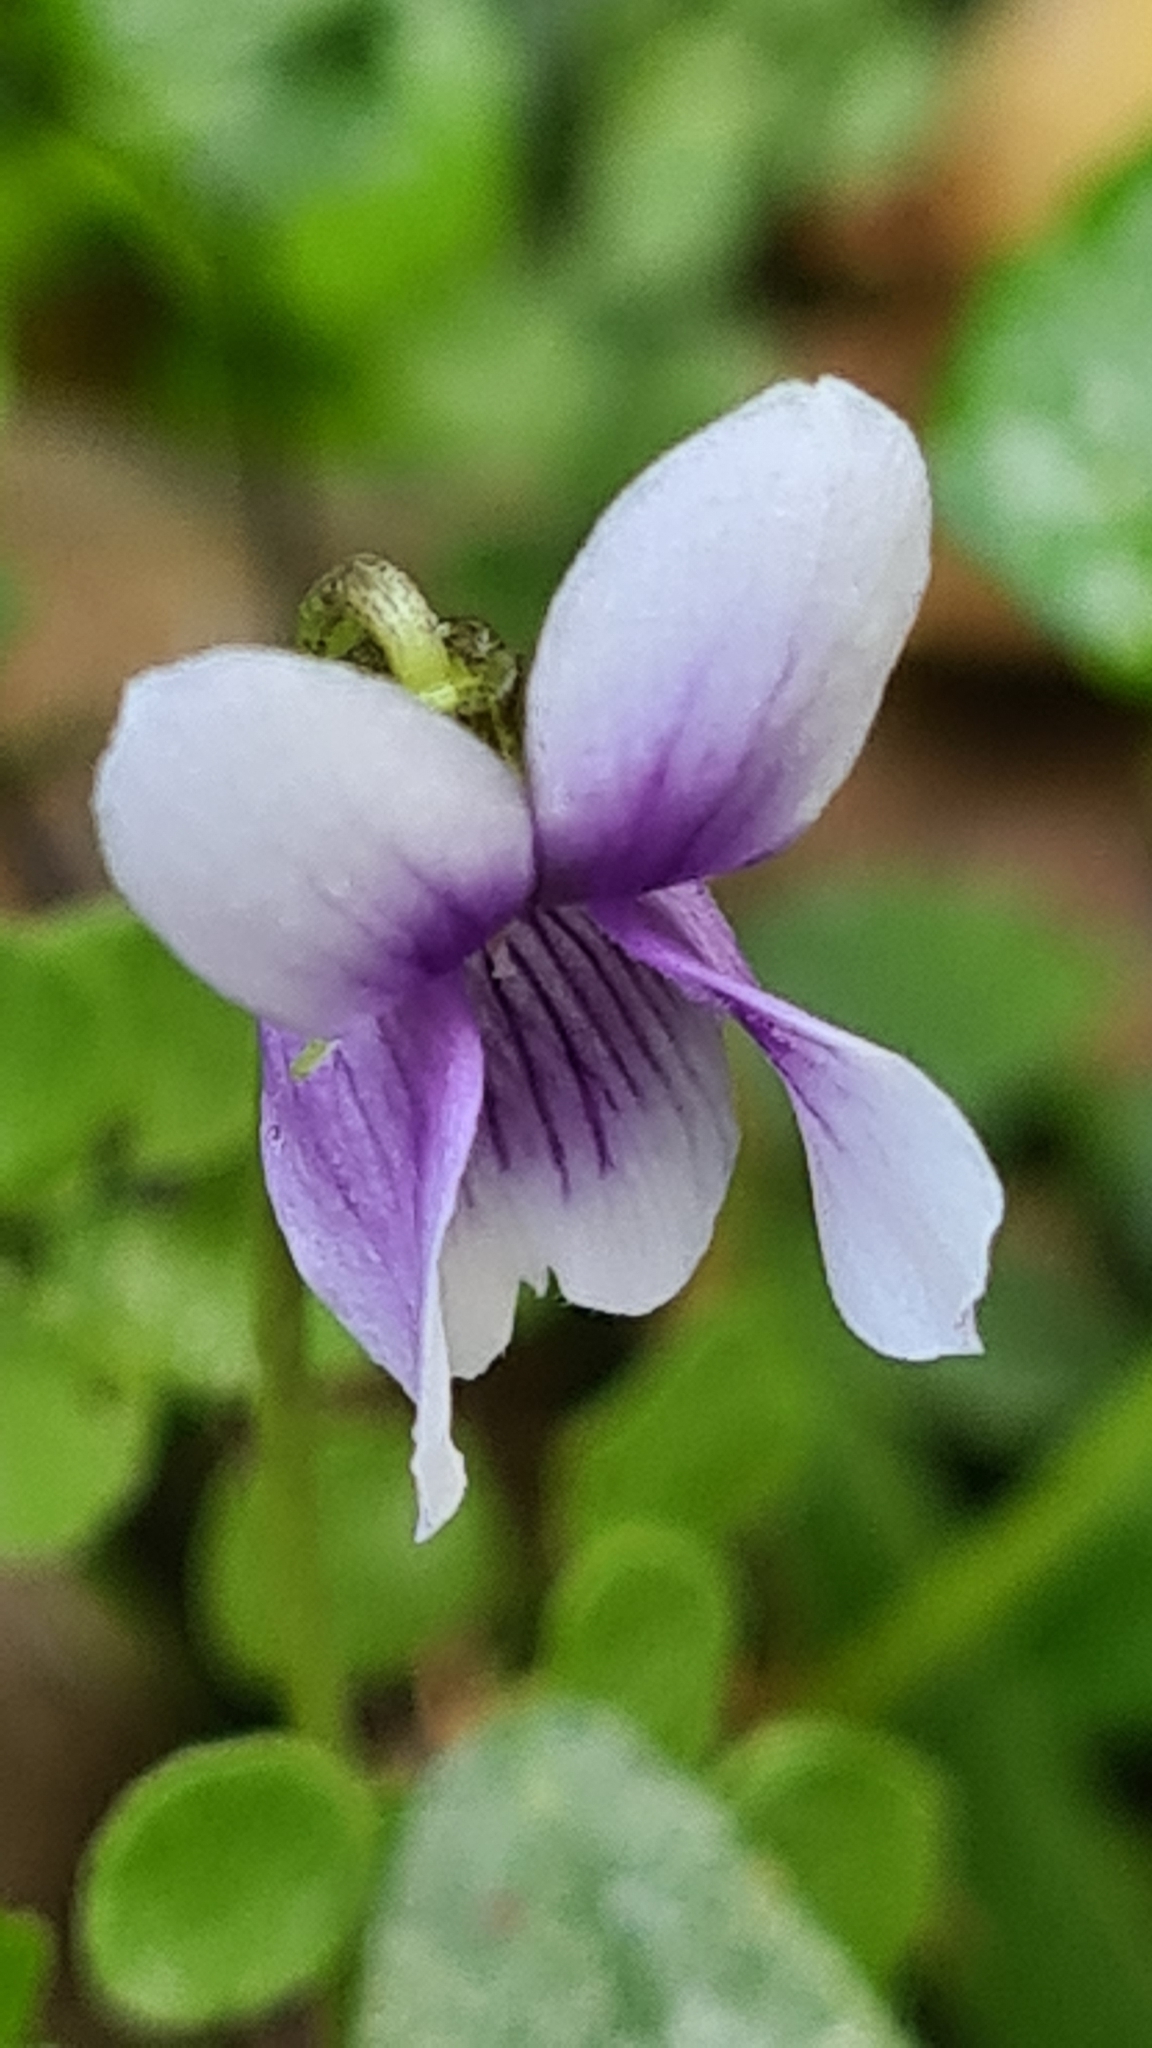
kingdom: Plantae
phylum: Tracheophyta
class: Magnoliopsida
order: Malpighiales
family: Violaceae
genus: Viola
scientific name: Viola hederacea
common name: Australian violet
